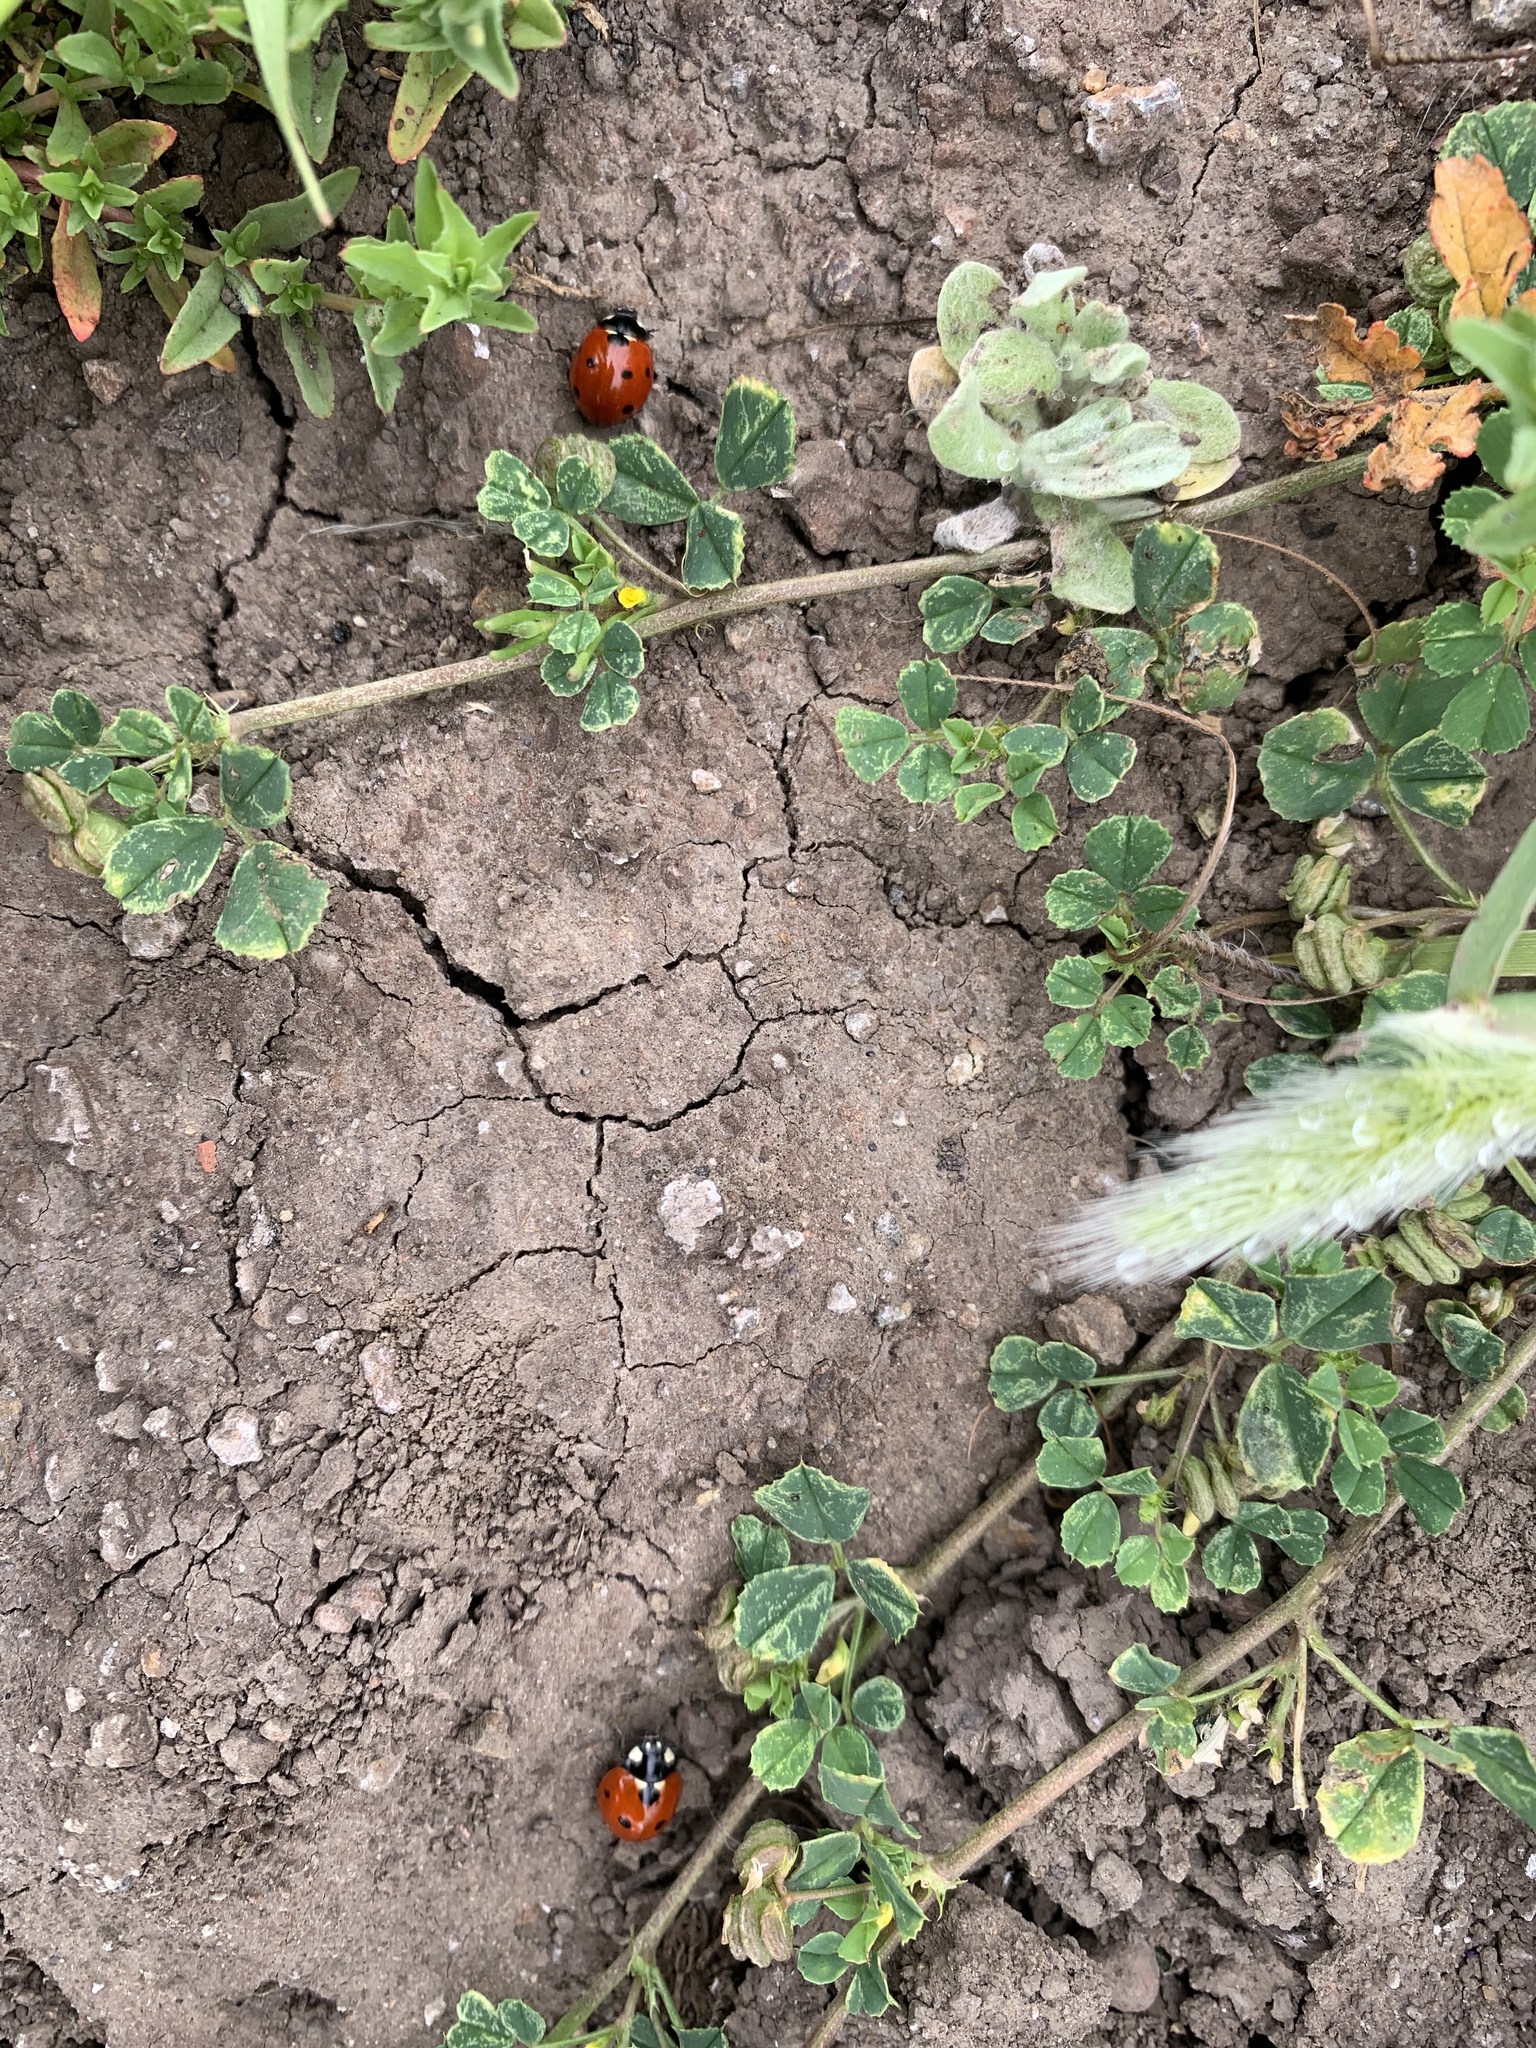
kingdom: Animalia
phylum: Arthropoda
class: Insecta
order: Coleoptera
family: Coccinellidae
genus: Coccinella
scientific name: Coccinella septempunctata
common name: Sevenspotted lady beetle
